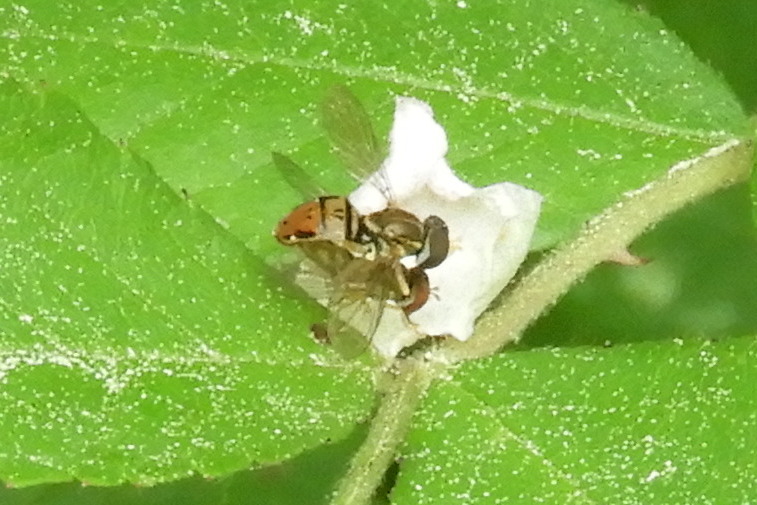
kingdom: Animalia
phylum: Arthropoda
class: Insecta
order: Diptera
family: Syrphidae
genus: Toxomerus
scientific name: Toxomerus marginatus
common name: Syrphid fly
